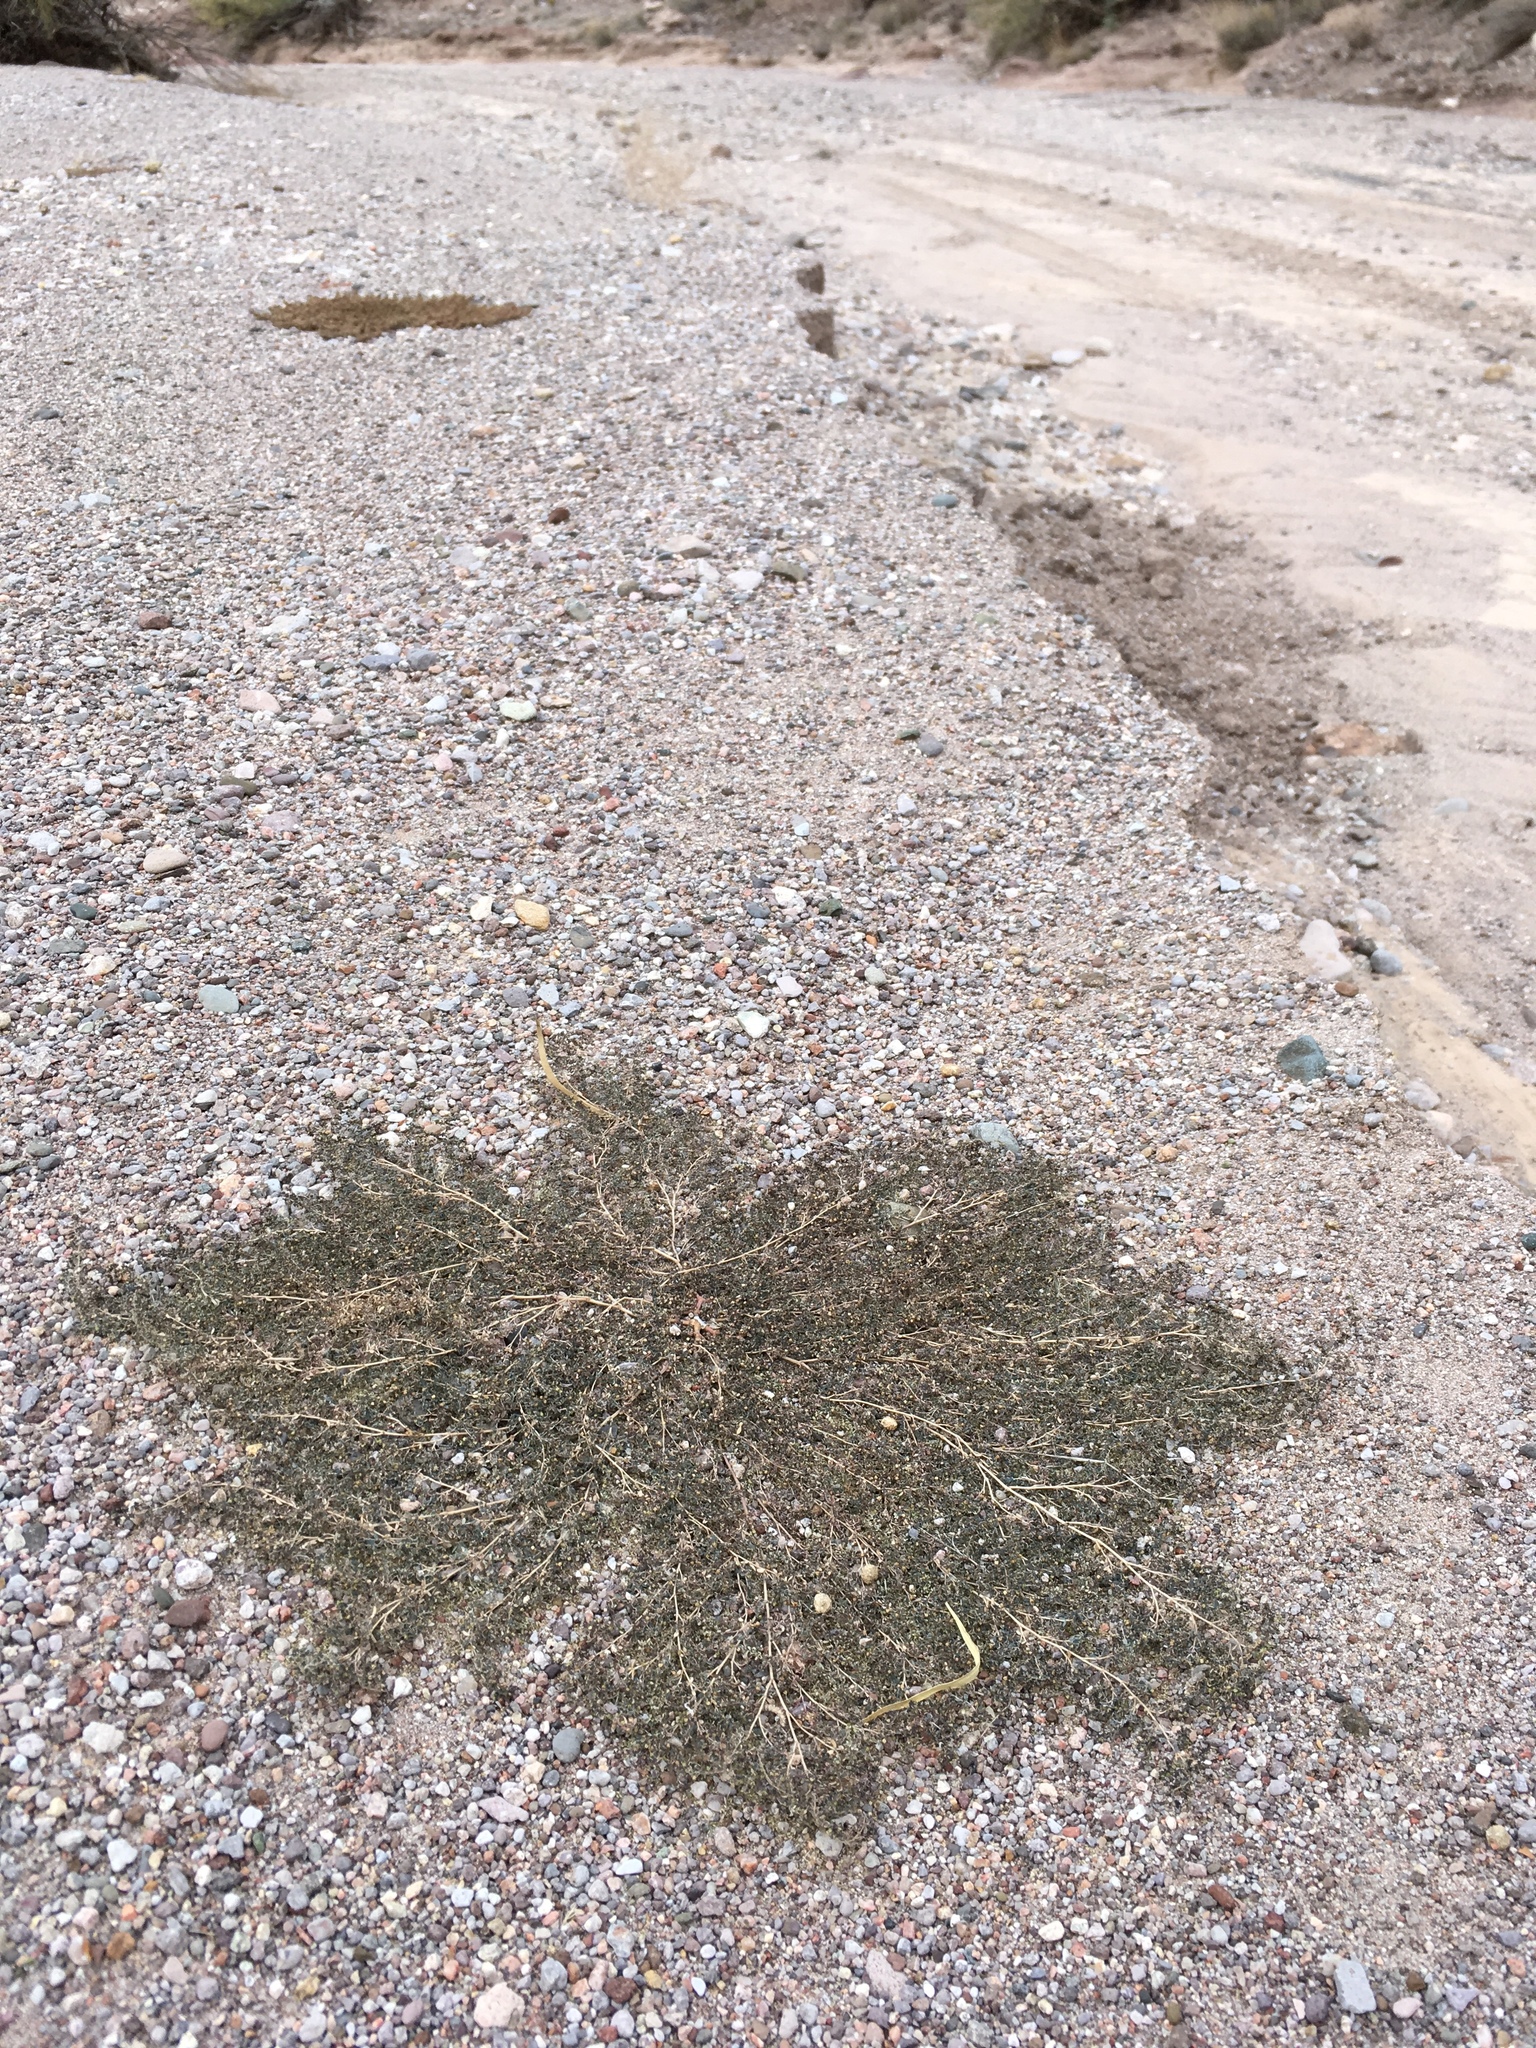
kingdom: Plantae
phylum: Tracheophyta
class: Magnoliopsida
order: Malpighiales
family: Euphorbiaceae
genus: Euphorbia
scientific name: Euphorbia micromera
